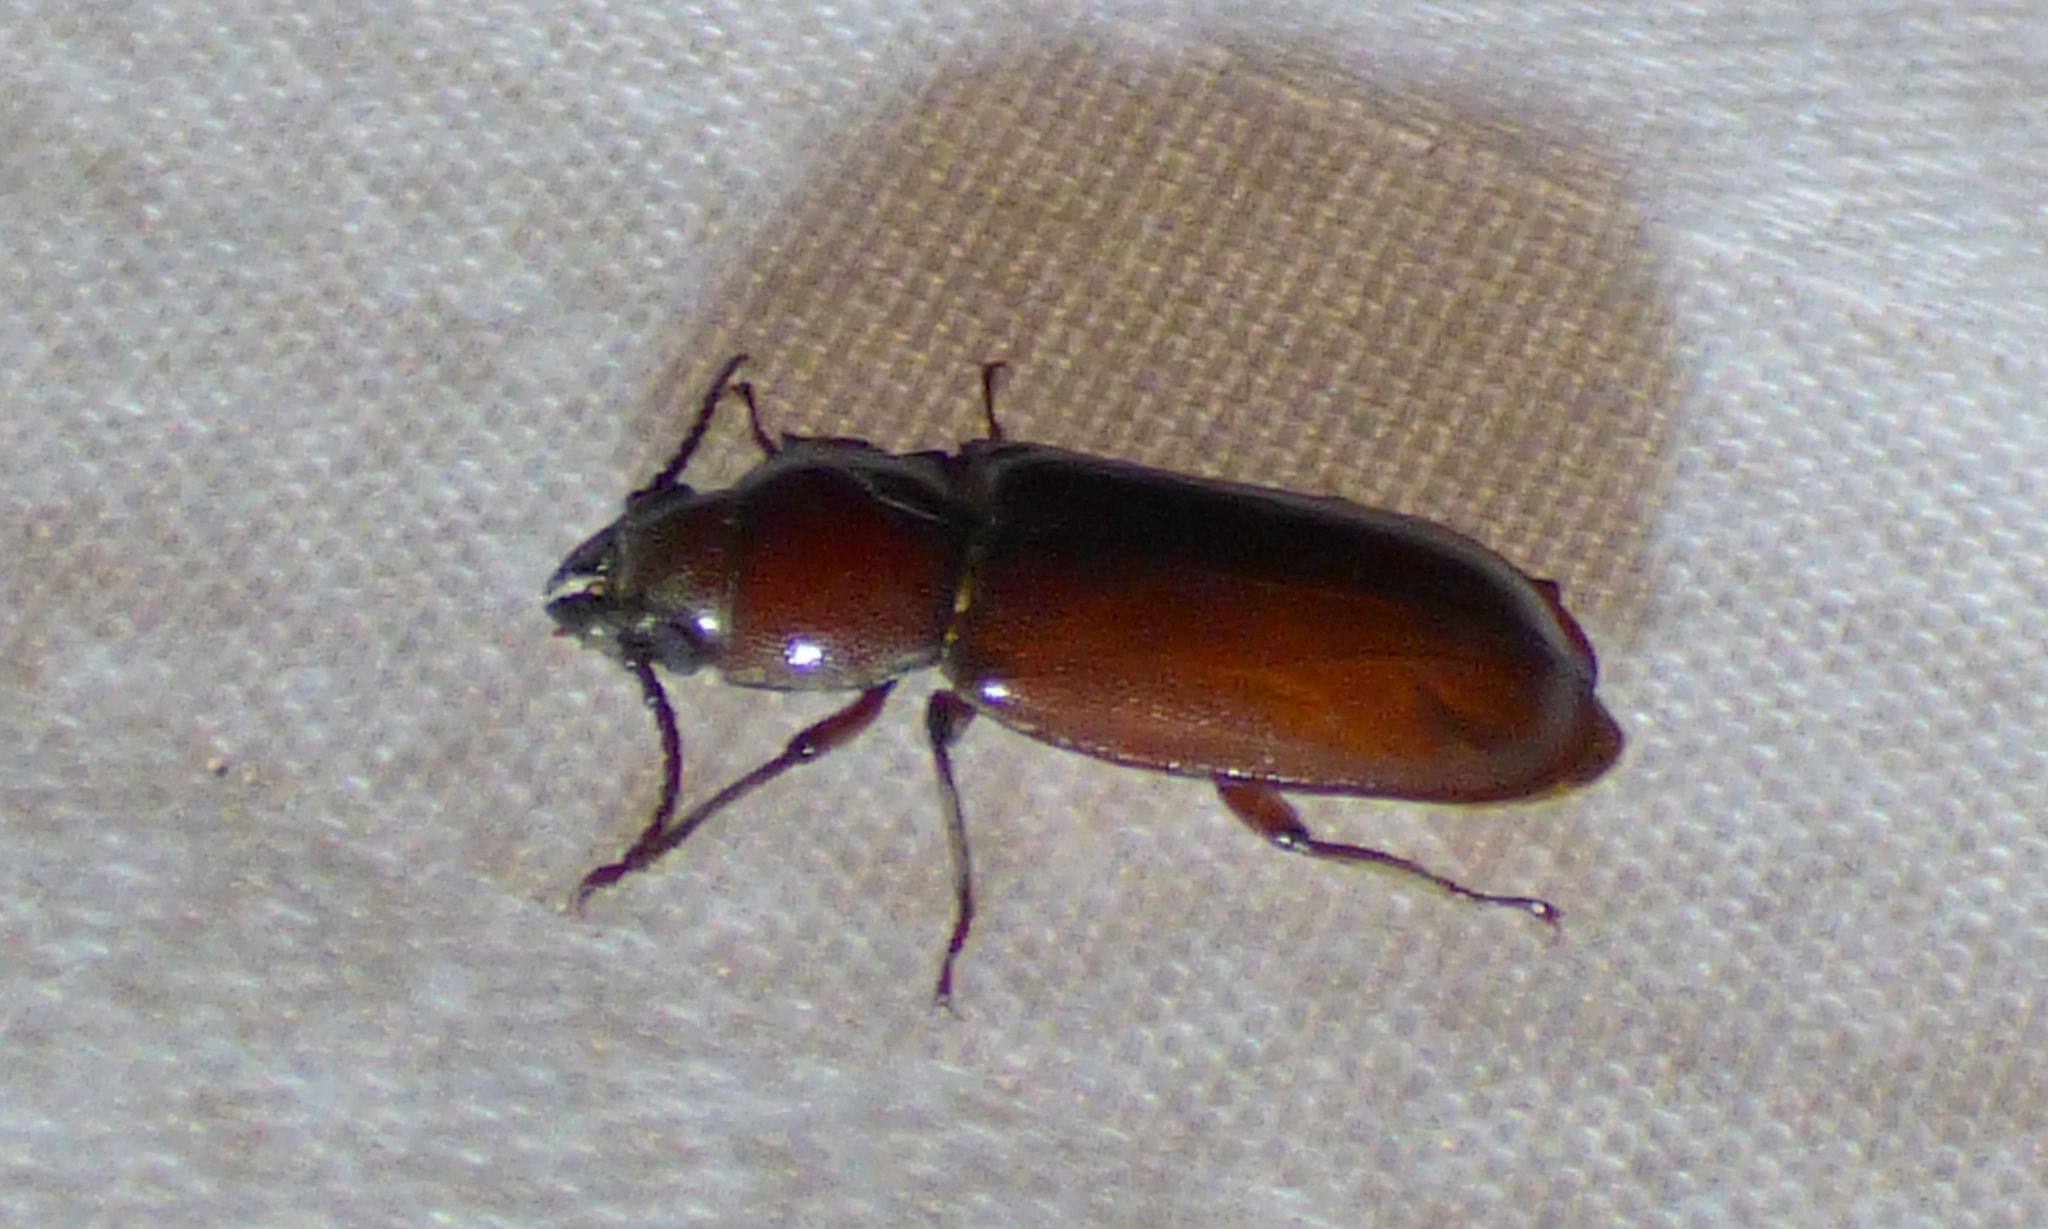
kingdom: Animalia
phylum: Arthropoda
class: Insecta
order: Coleoptera
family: Cerambycidae
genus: Neandra
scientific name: Neandra brunnea
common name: Pole borer
